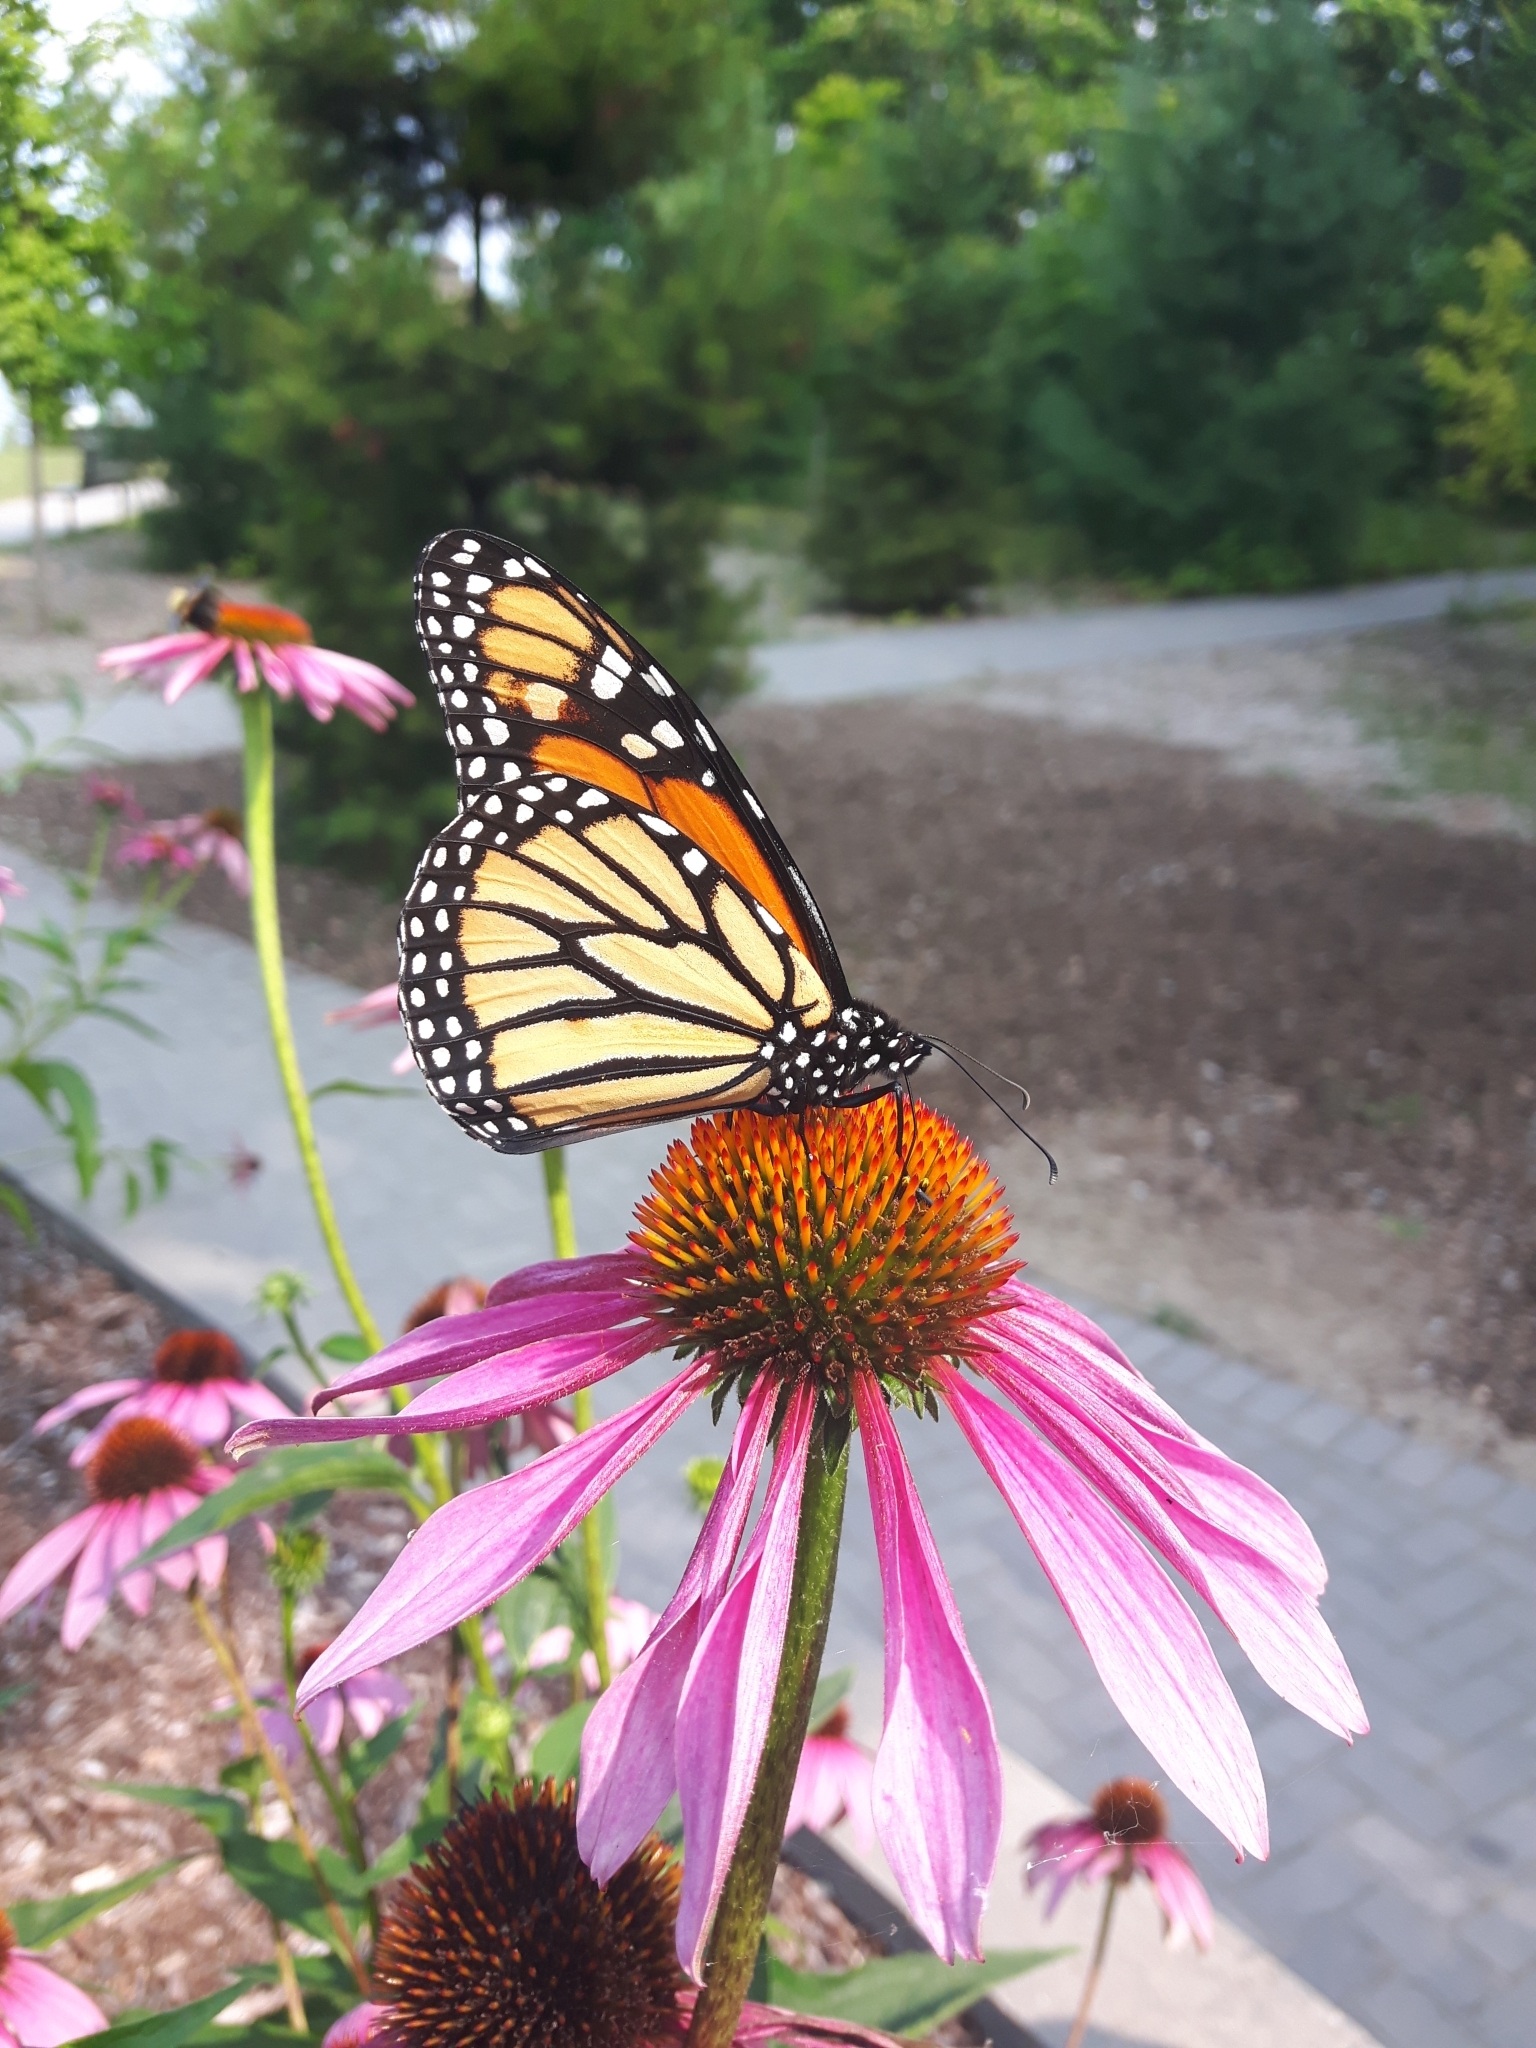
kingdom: Animalia
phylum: Arthropoda
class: Insecta
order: Lepidoptera
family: Nymphalidae
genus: Danaus
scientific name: Danaus plexippus
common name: Monarch
